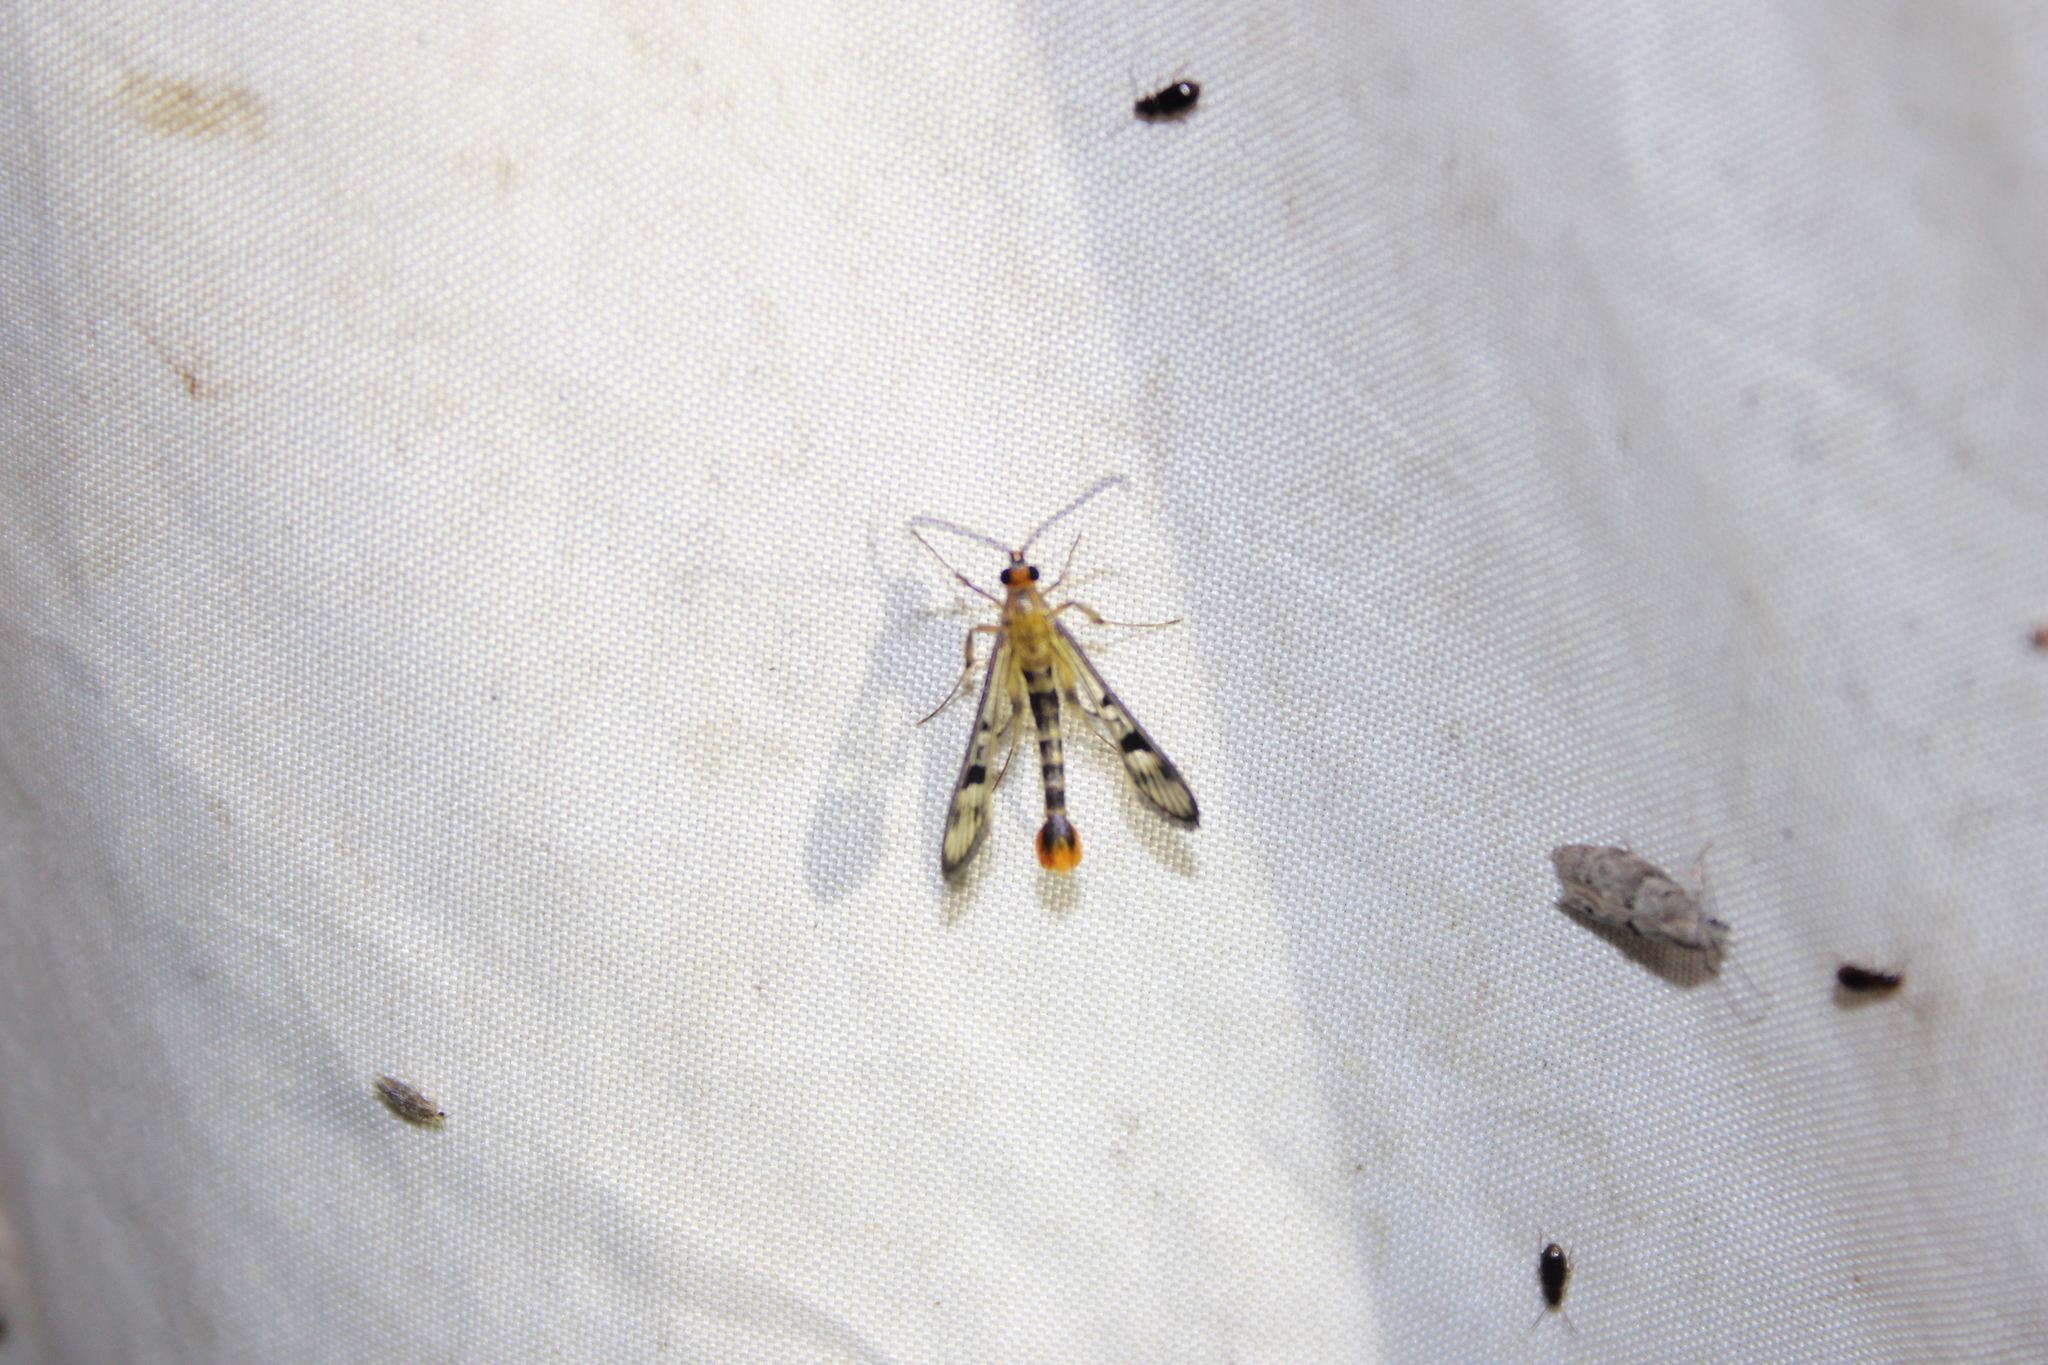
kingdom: Animalia
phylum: Arthropoda
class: Insecta
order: Lepidoptera
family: Sesiidae
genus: Synanthedon
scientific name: Synanthedon acerni
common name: Maple callus borer moth
